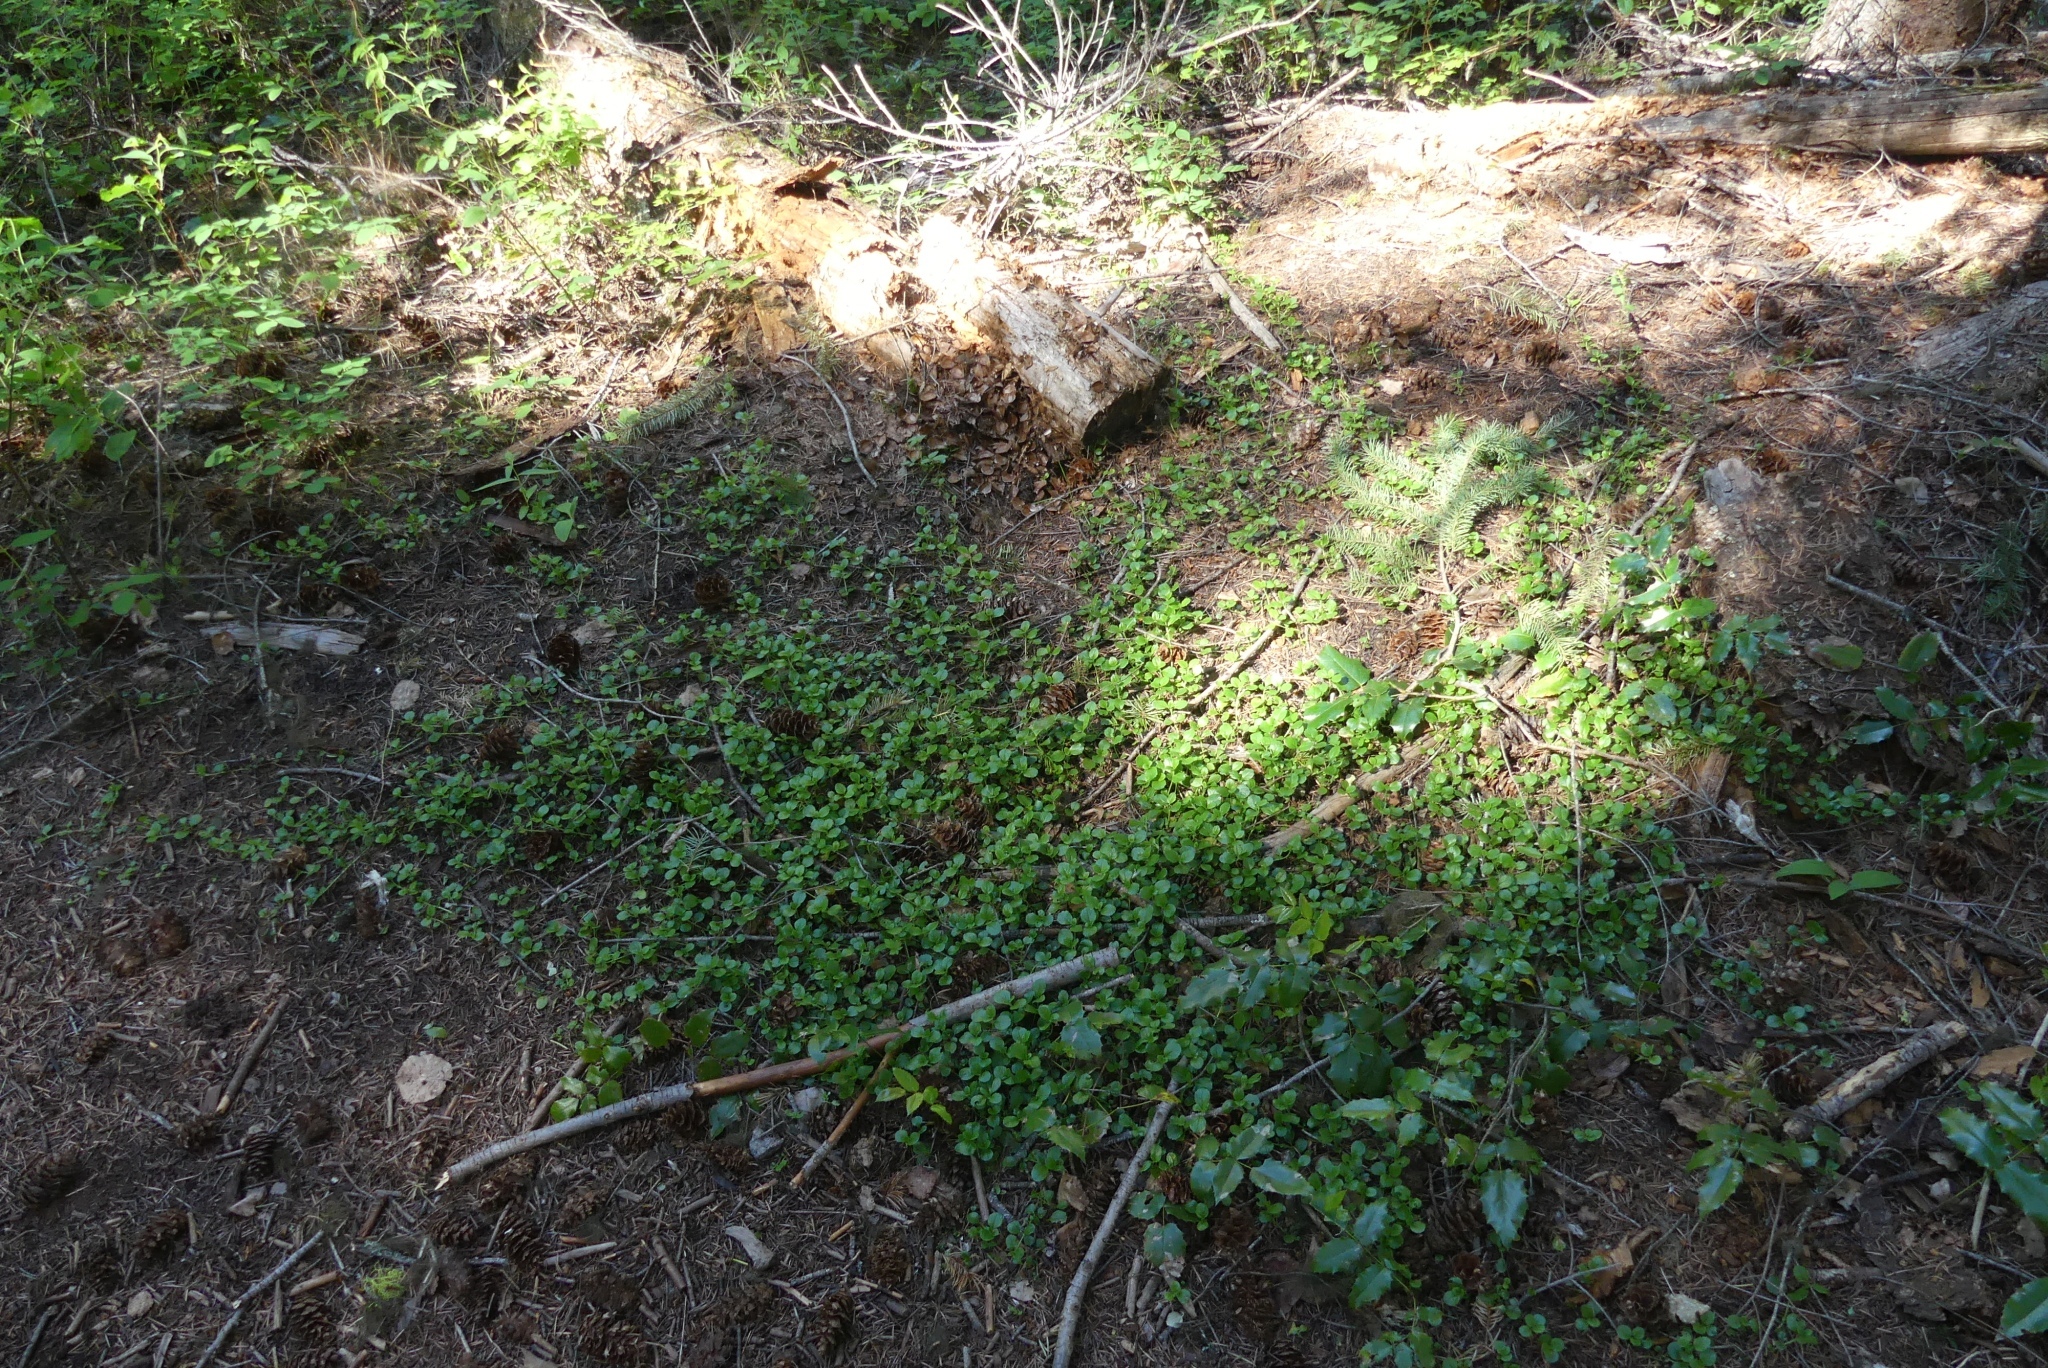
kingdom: Plantae
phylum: Tracheophyta
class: Magnoliopsida
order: Dipsacales
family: Caprifoliaceae
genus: Linnaea
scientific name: Linnaea borealis
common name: Twinflower
